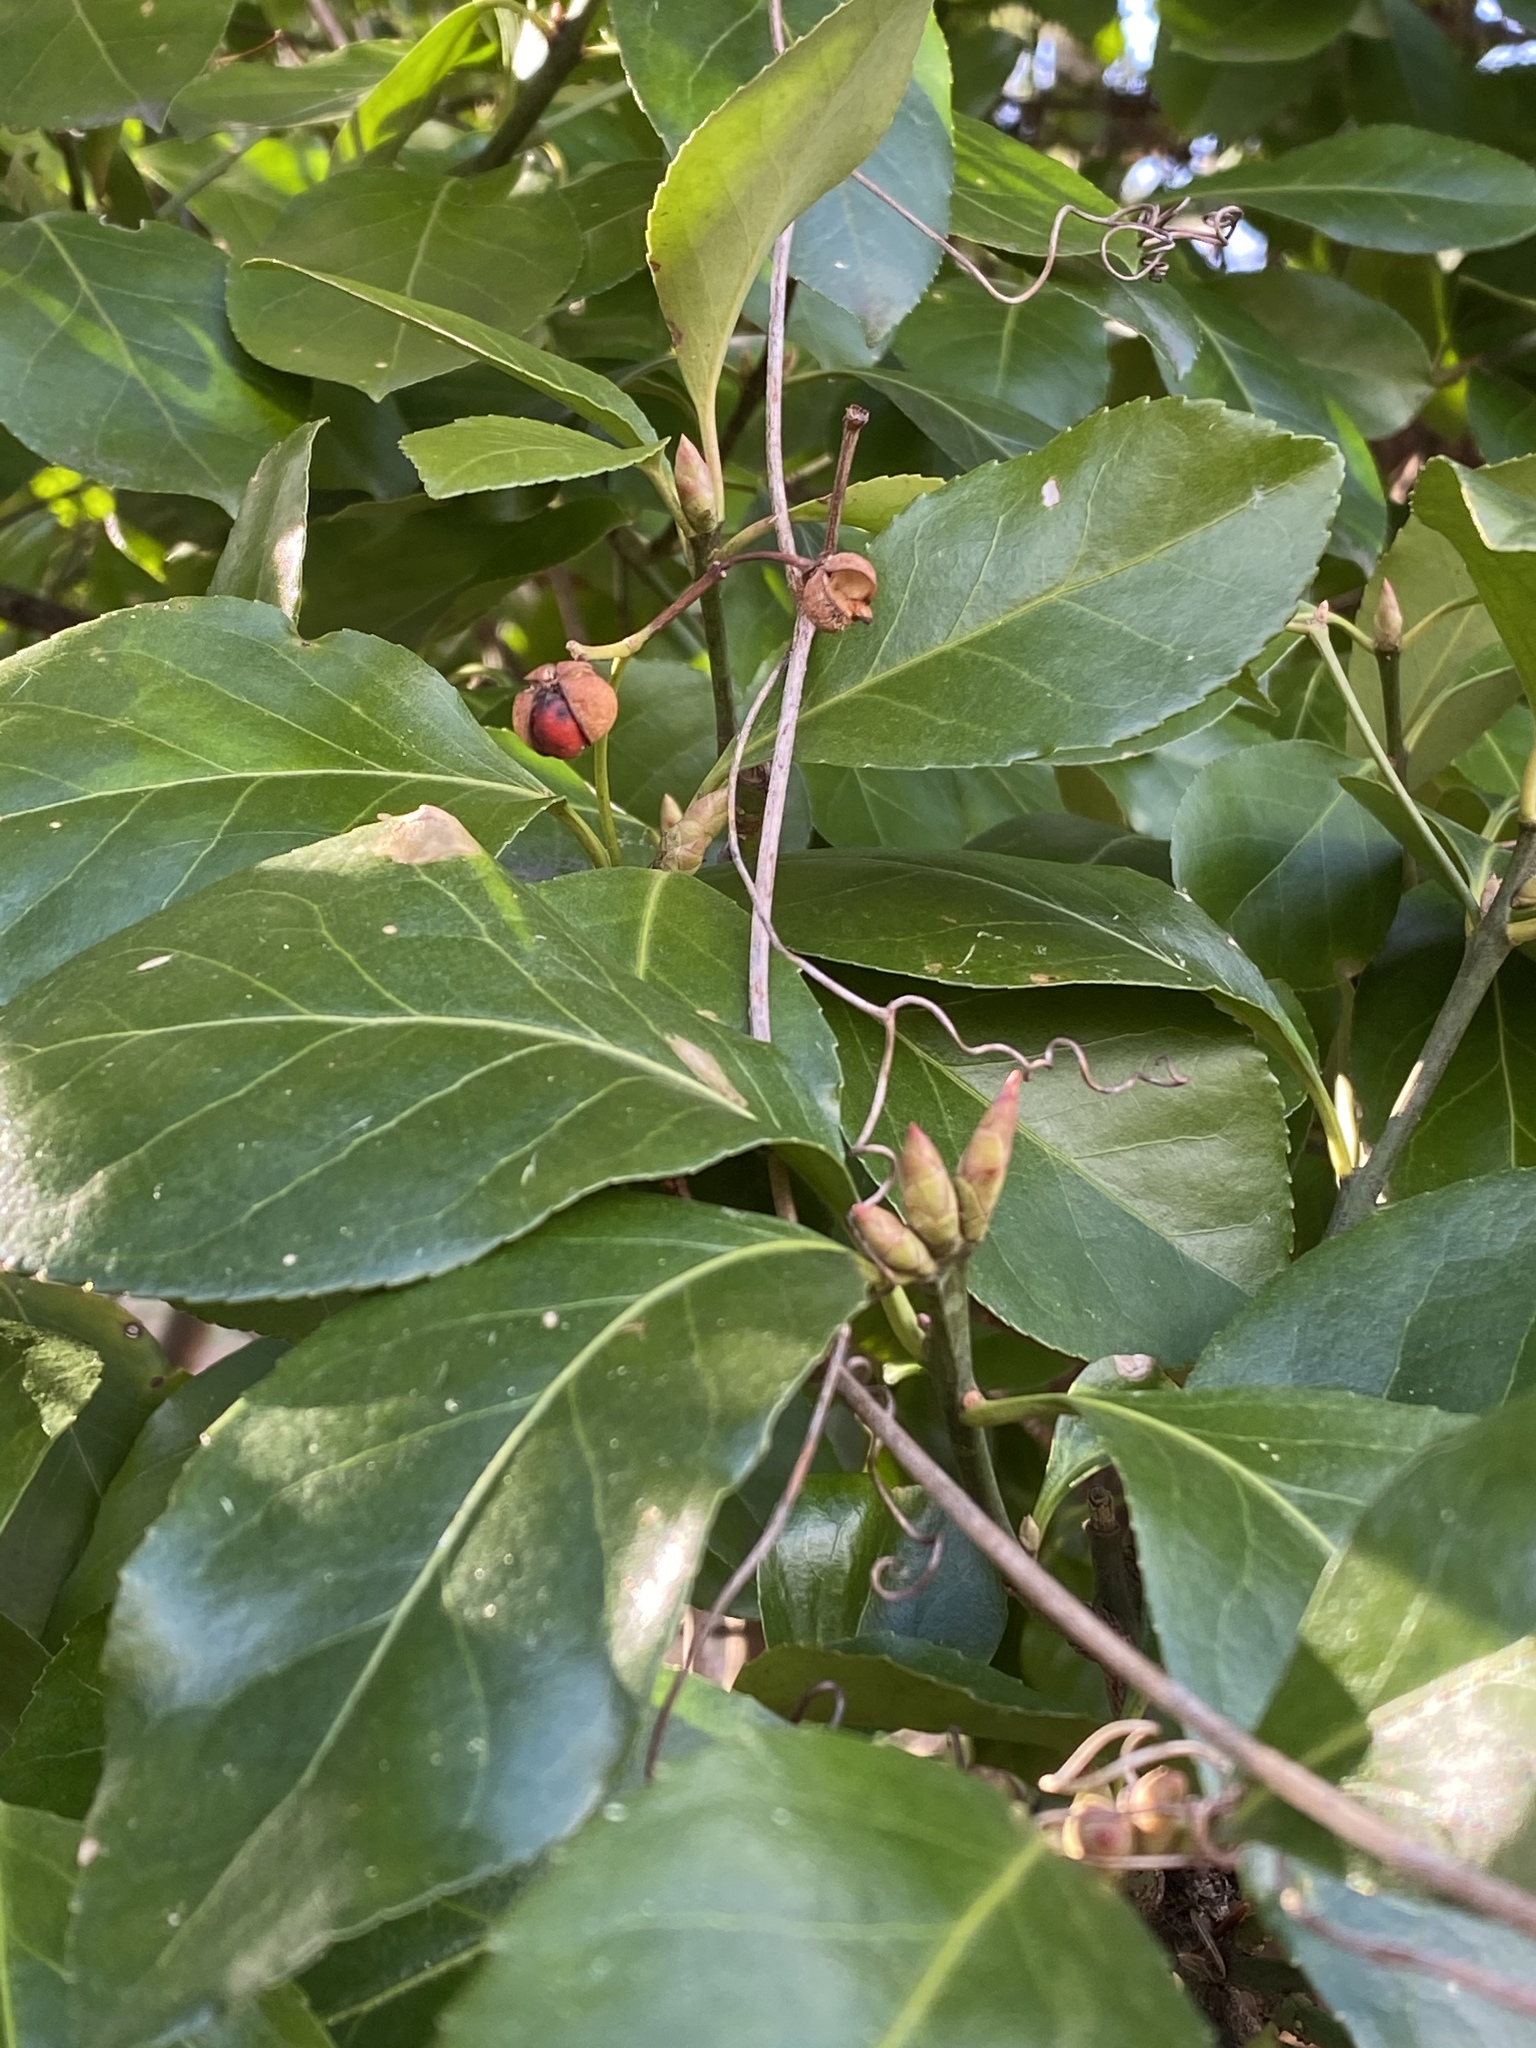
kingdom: Plantae
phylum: Tracheophyta
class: Magnoliopsida
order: Celastrales
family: Celastraceae
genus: Euonymus
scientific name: Euonymus japonicus
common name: Japanese spindletree
